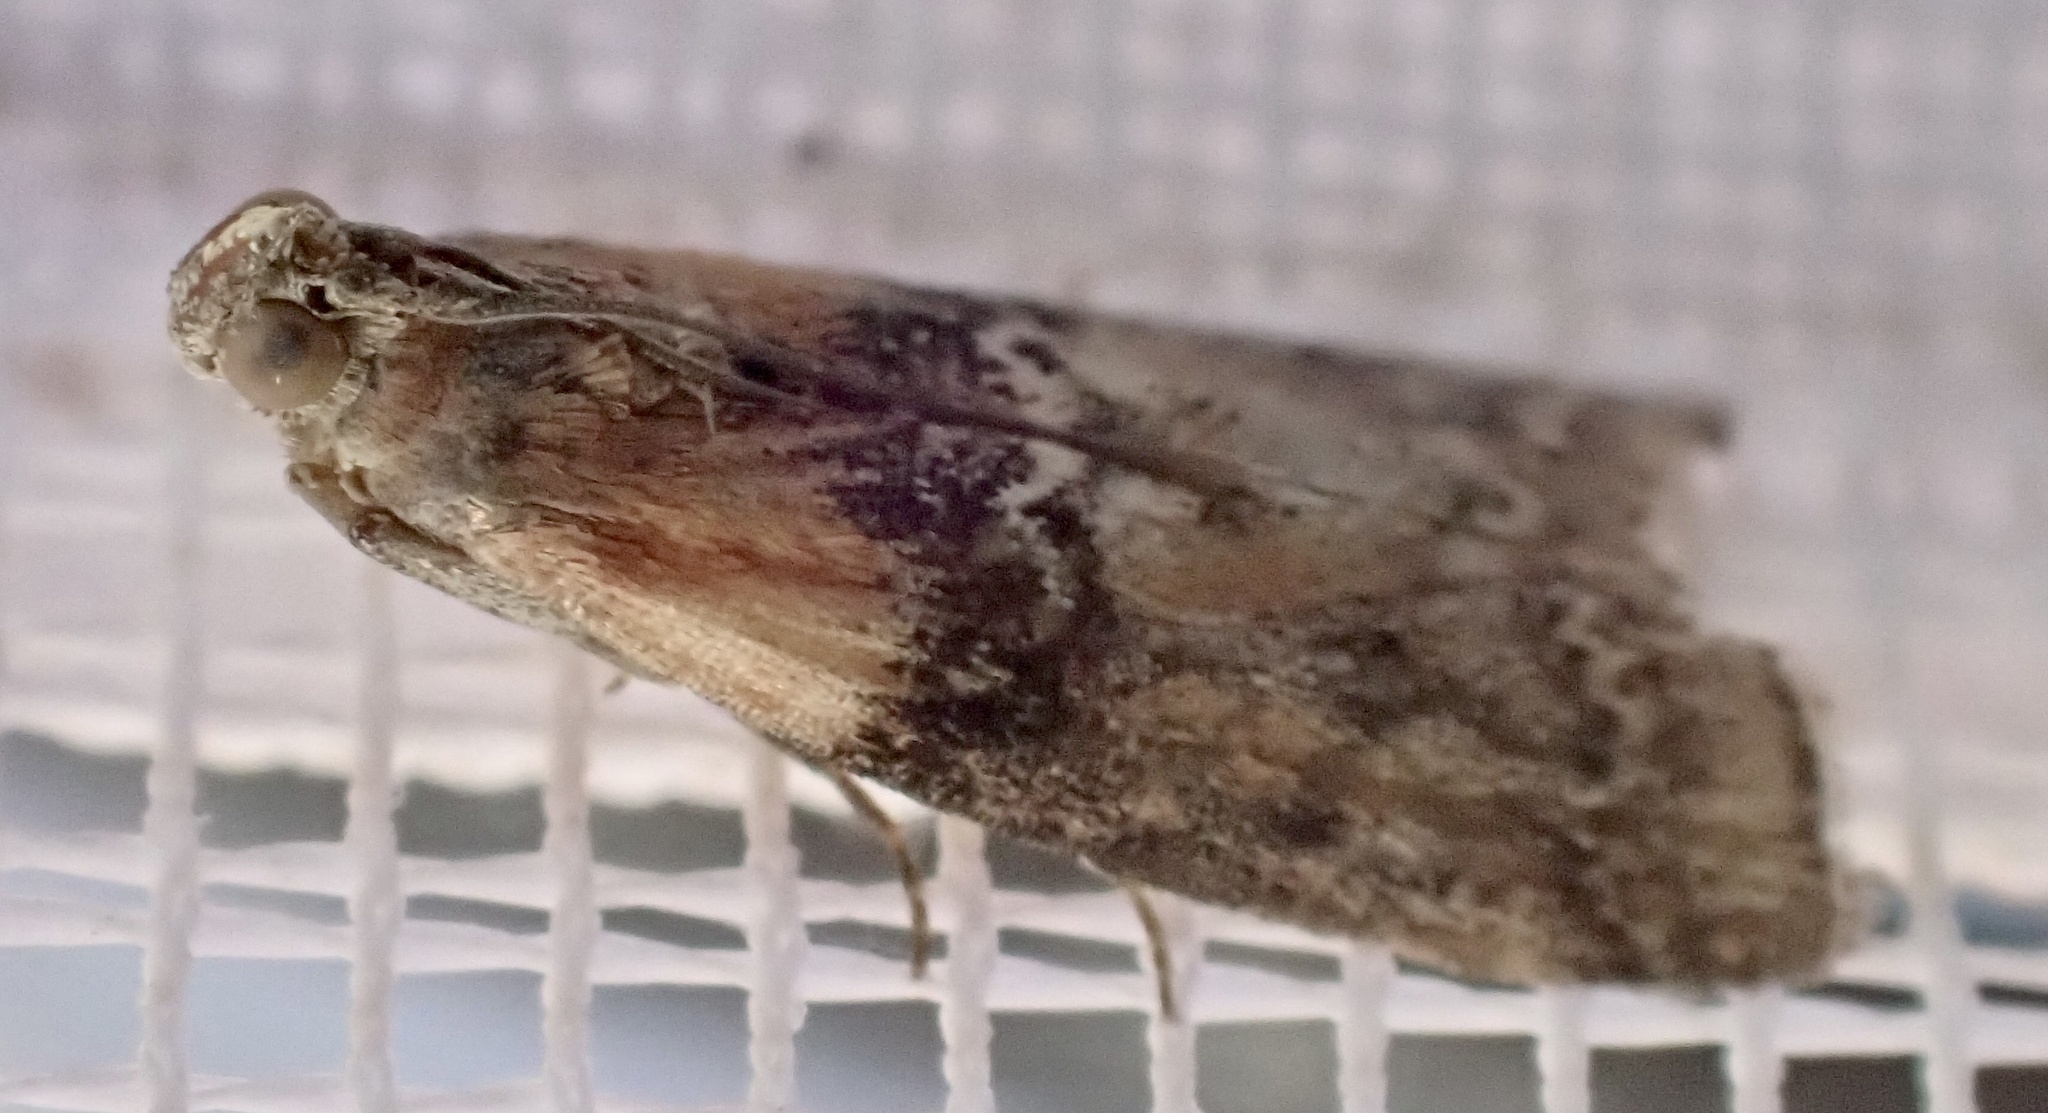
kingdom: Animalia
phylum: Arthropoda
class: Insecta
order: Lepidoptera
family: Pyralidae
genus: Sciota
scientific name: Sciota adelphella
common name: Willow knot-horn
